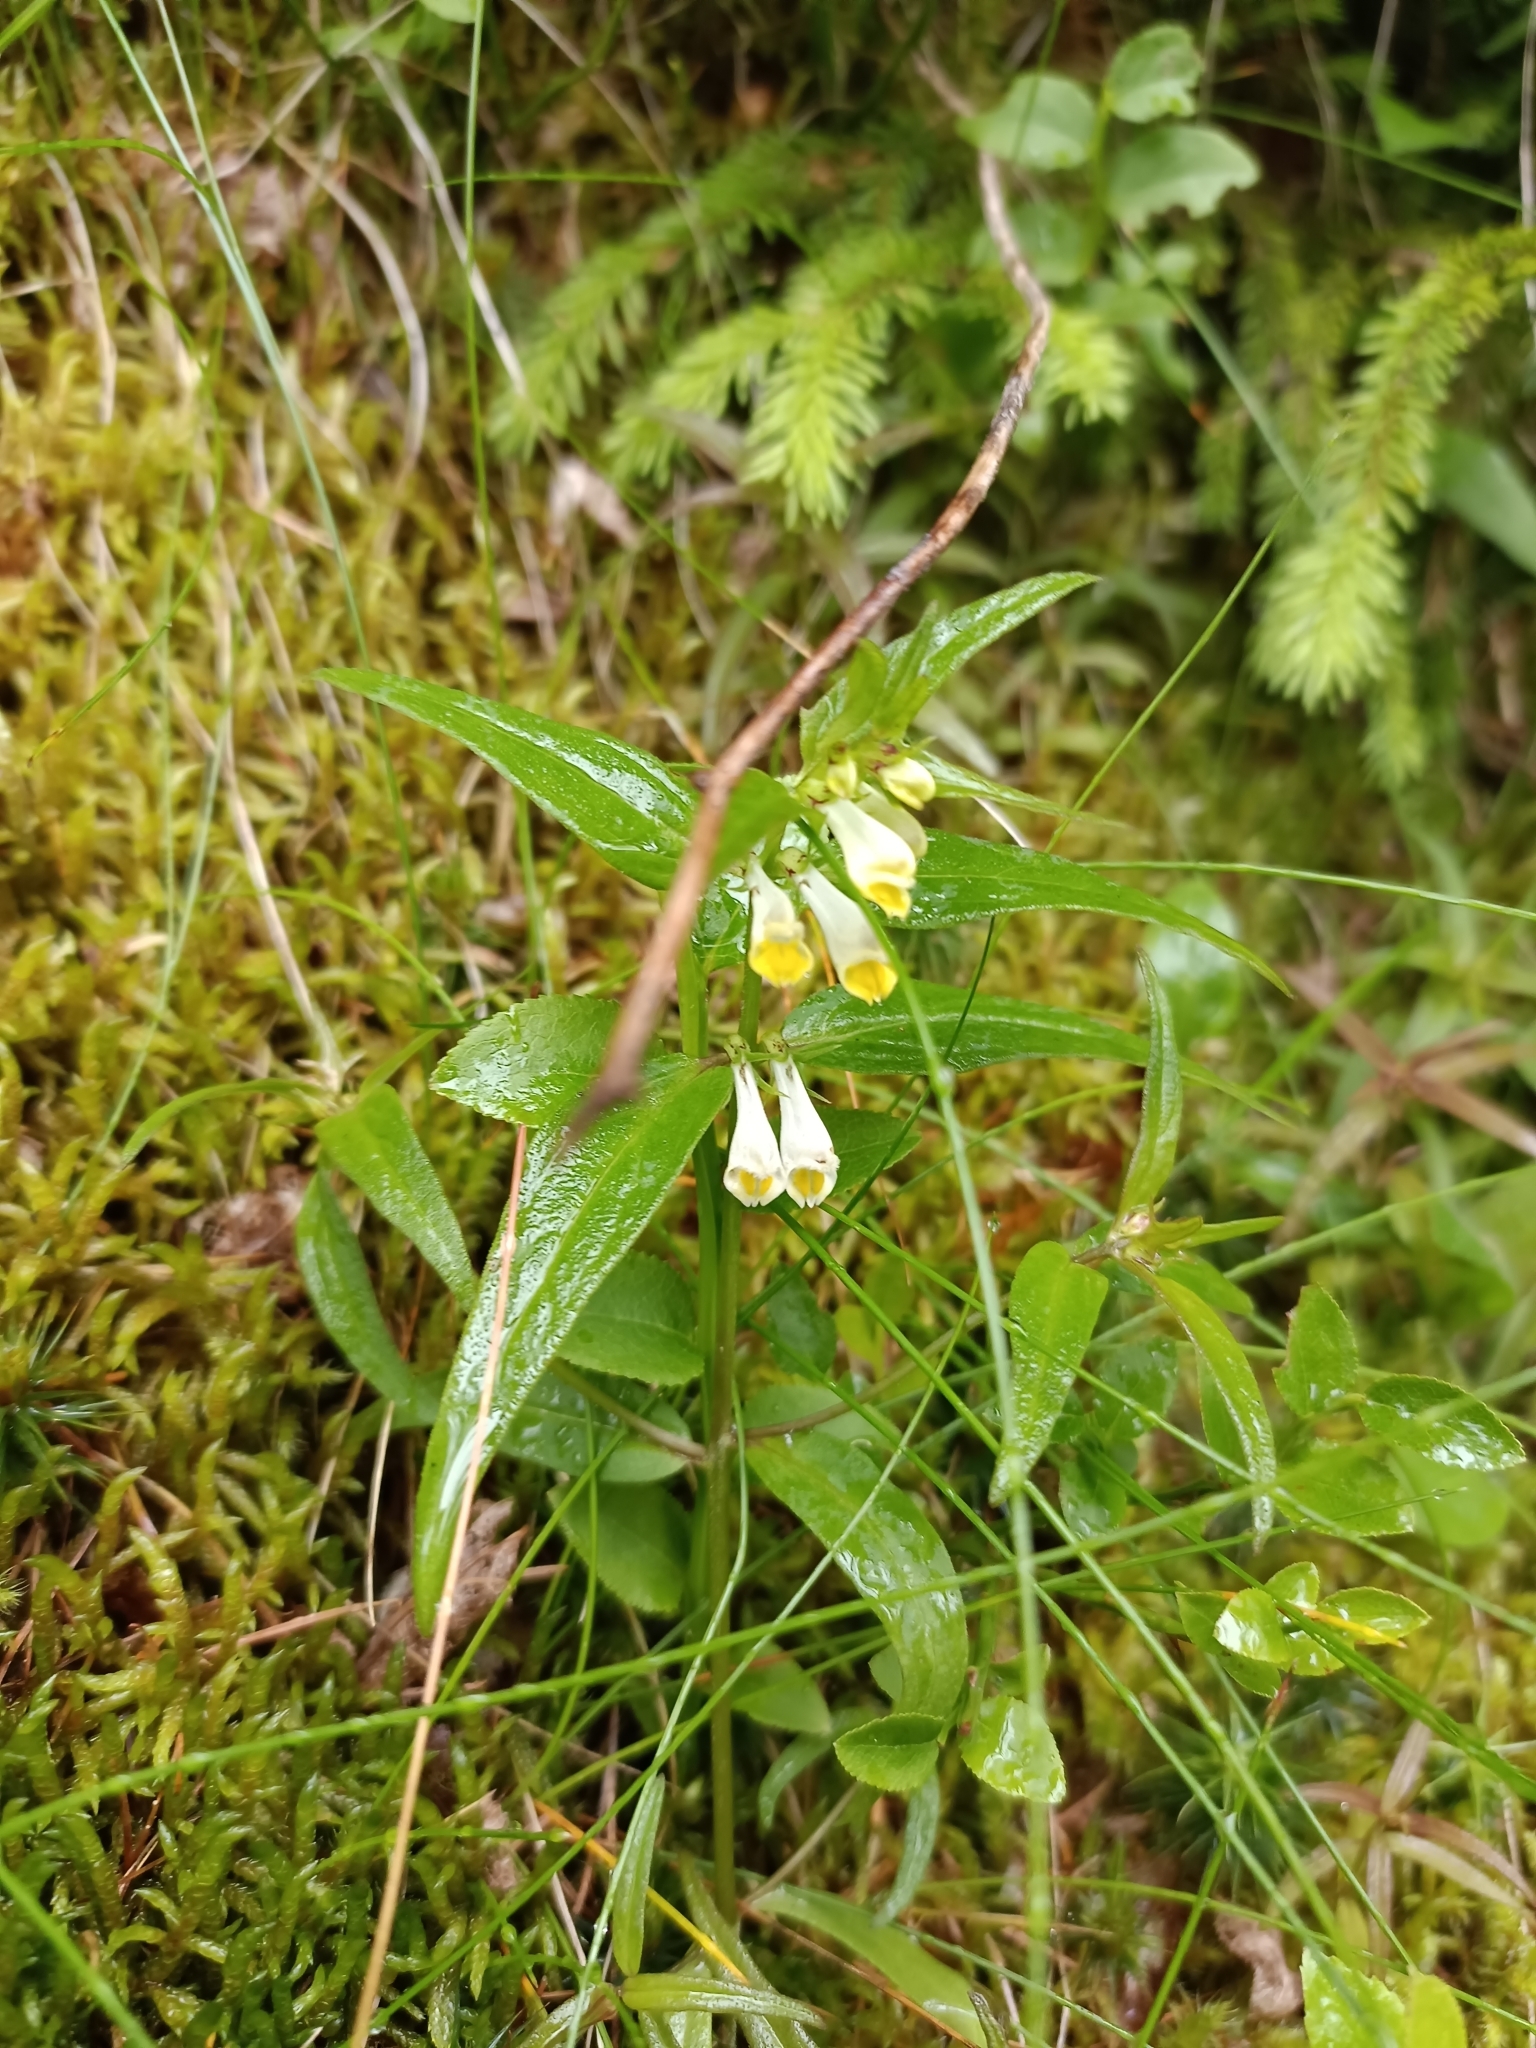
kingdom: Plantae
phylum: Tracheophyta
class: Magnoliopsida
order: Lamiales
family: Orobanchaceae
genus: Melampyrum
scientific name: Melampyrum pratense
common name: Common cow-wheat
